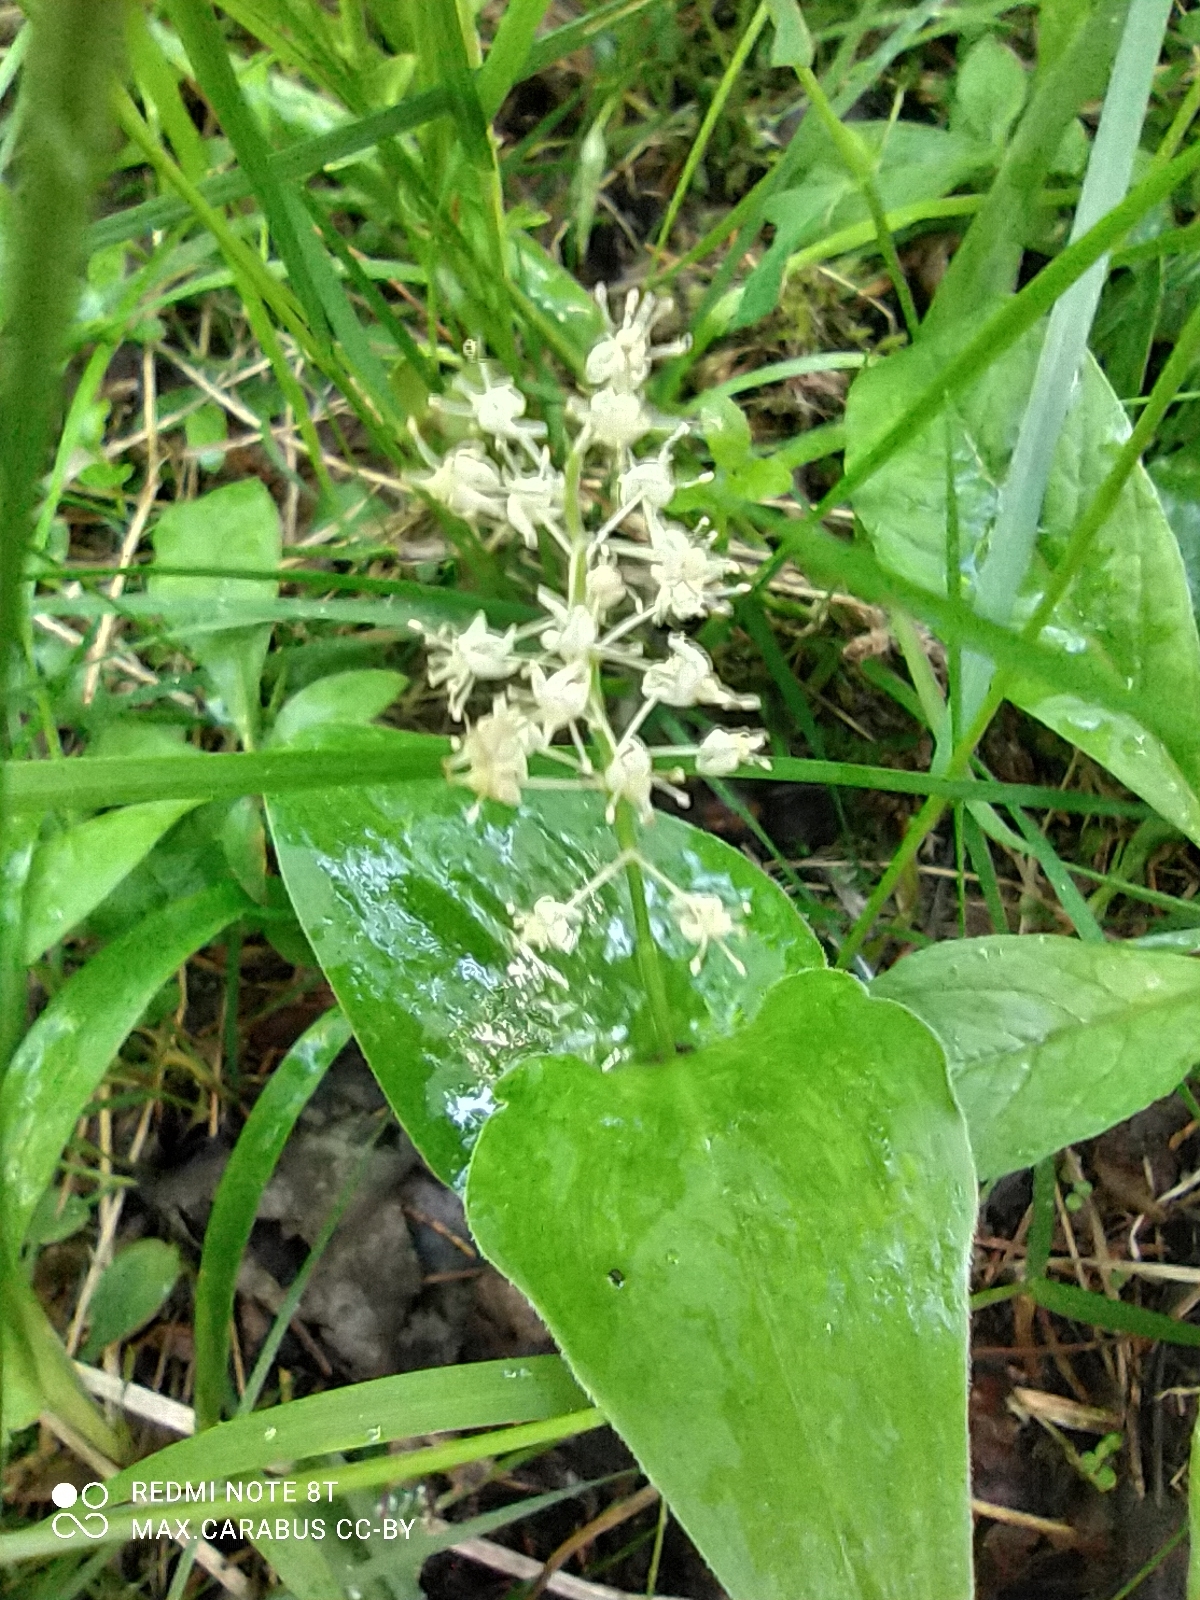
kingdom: Plantae
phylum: Tracheophyta
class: Liliopsida
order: Asparagales
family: Asparagaceae
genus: Maianthemum
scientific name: Maianthemum bifolium
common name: May lily
